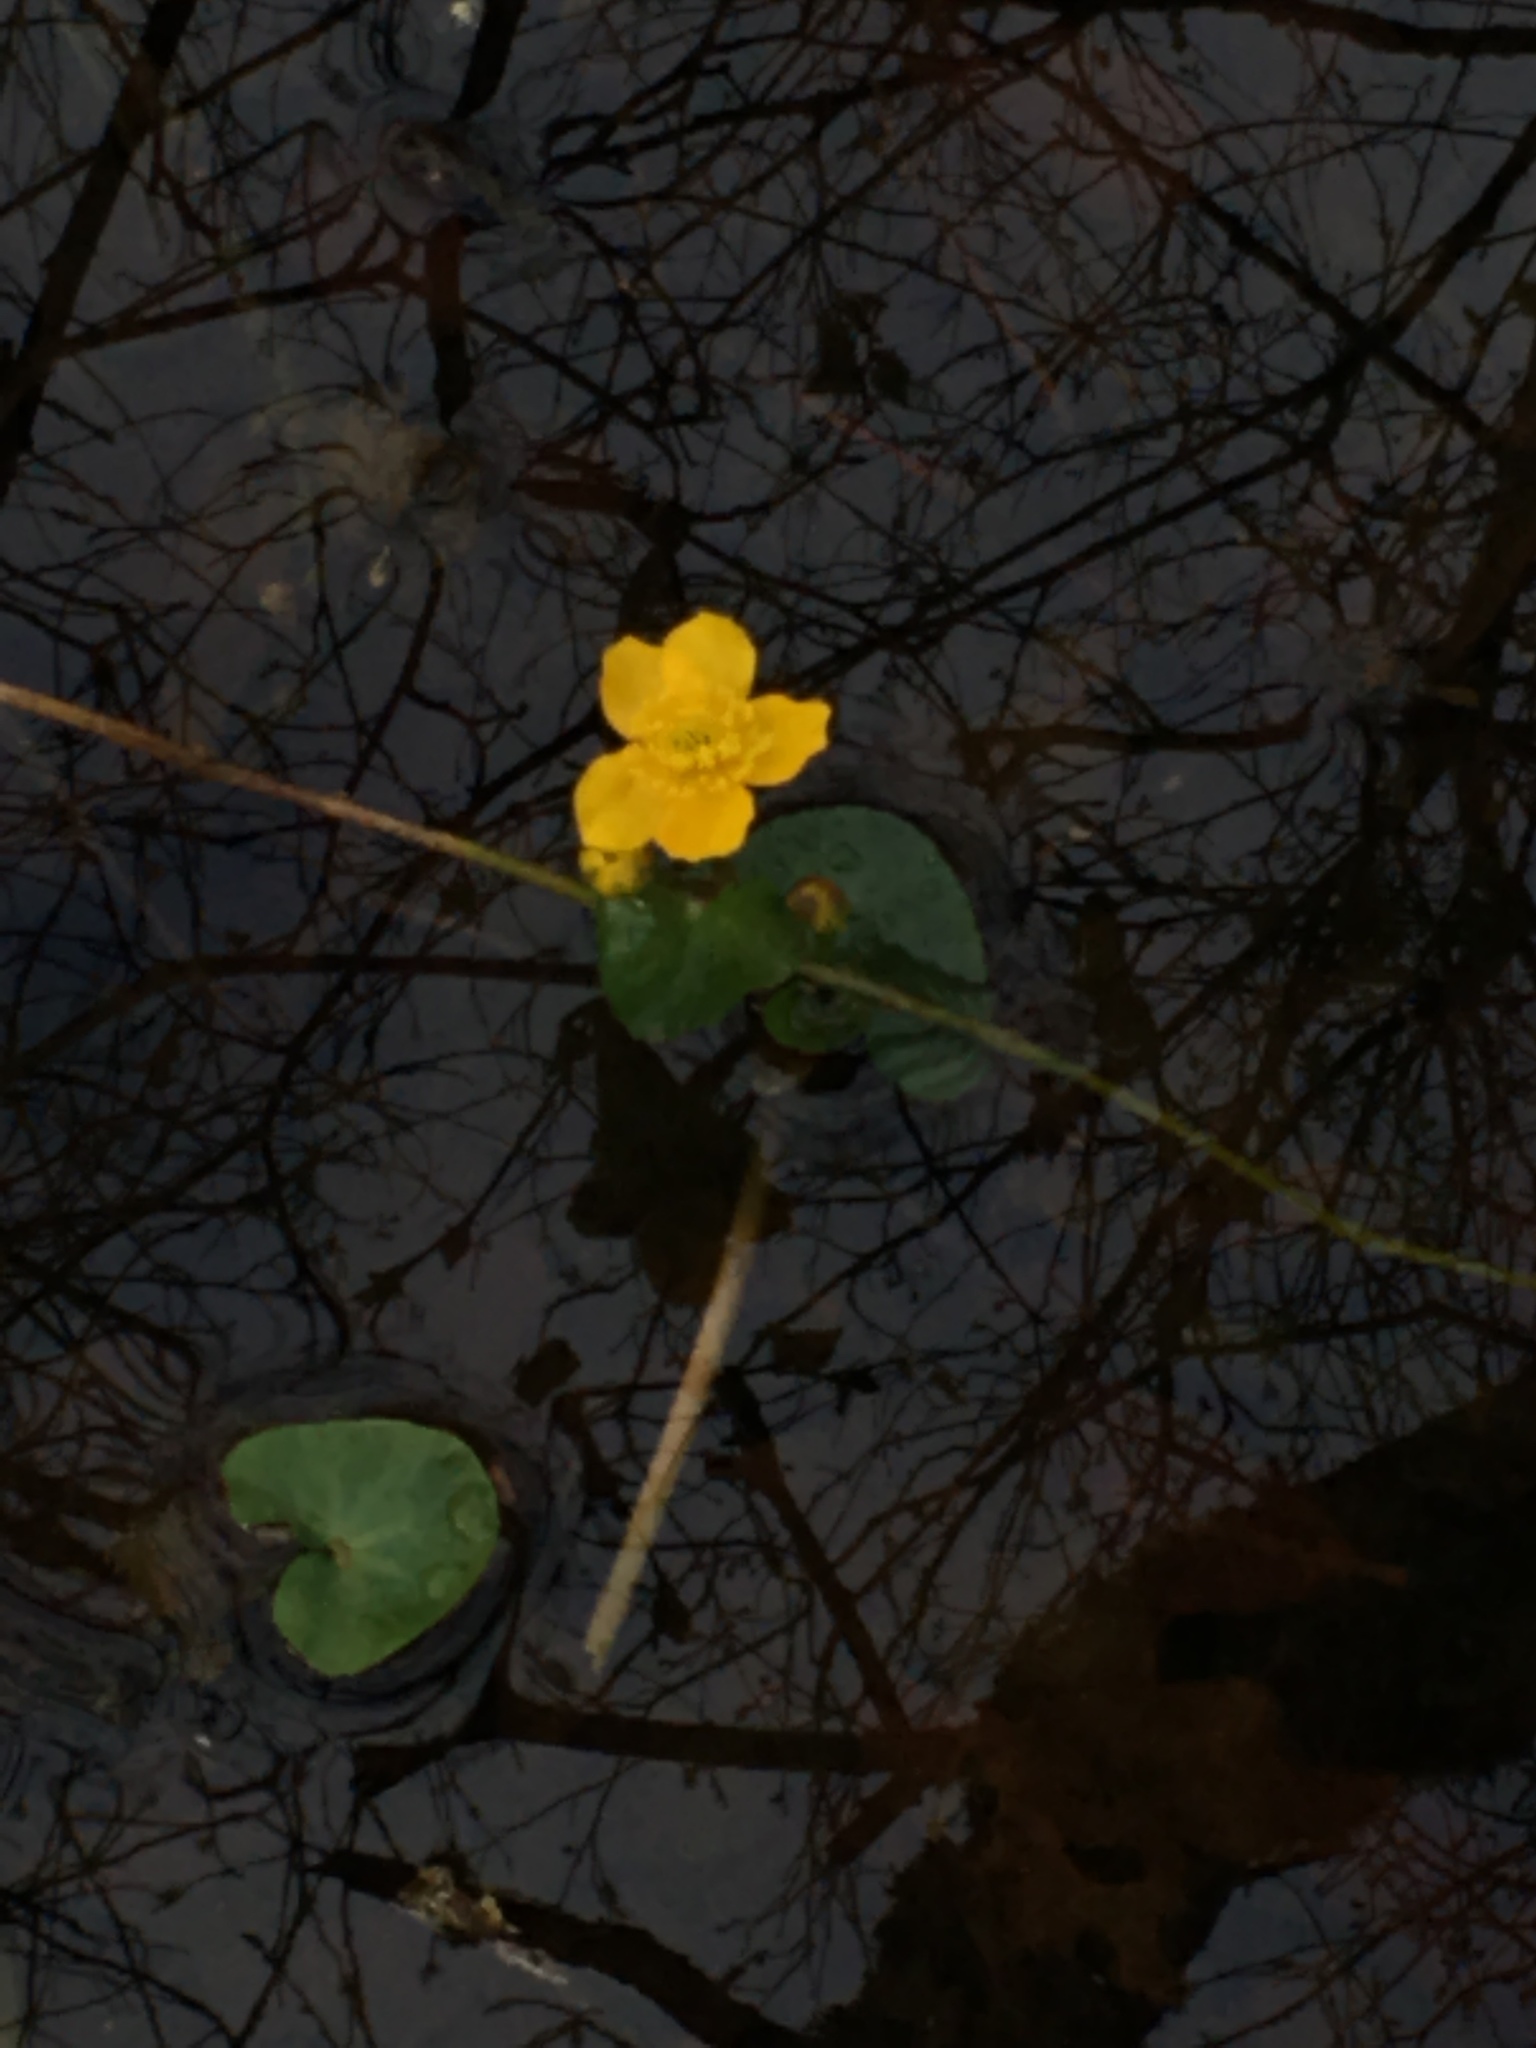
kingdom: Plantae
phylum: Tracheophyta
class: Magnoliopsida
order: Ranunculales
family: Ranunculaceae
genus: Caltha
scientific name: Caltha palustris
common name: Marsh marigold
